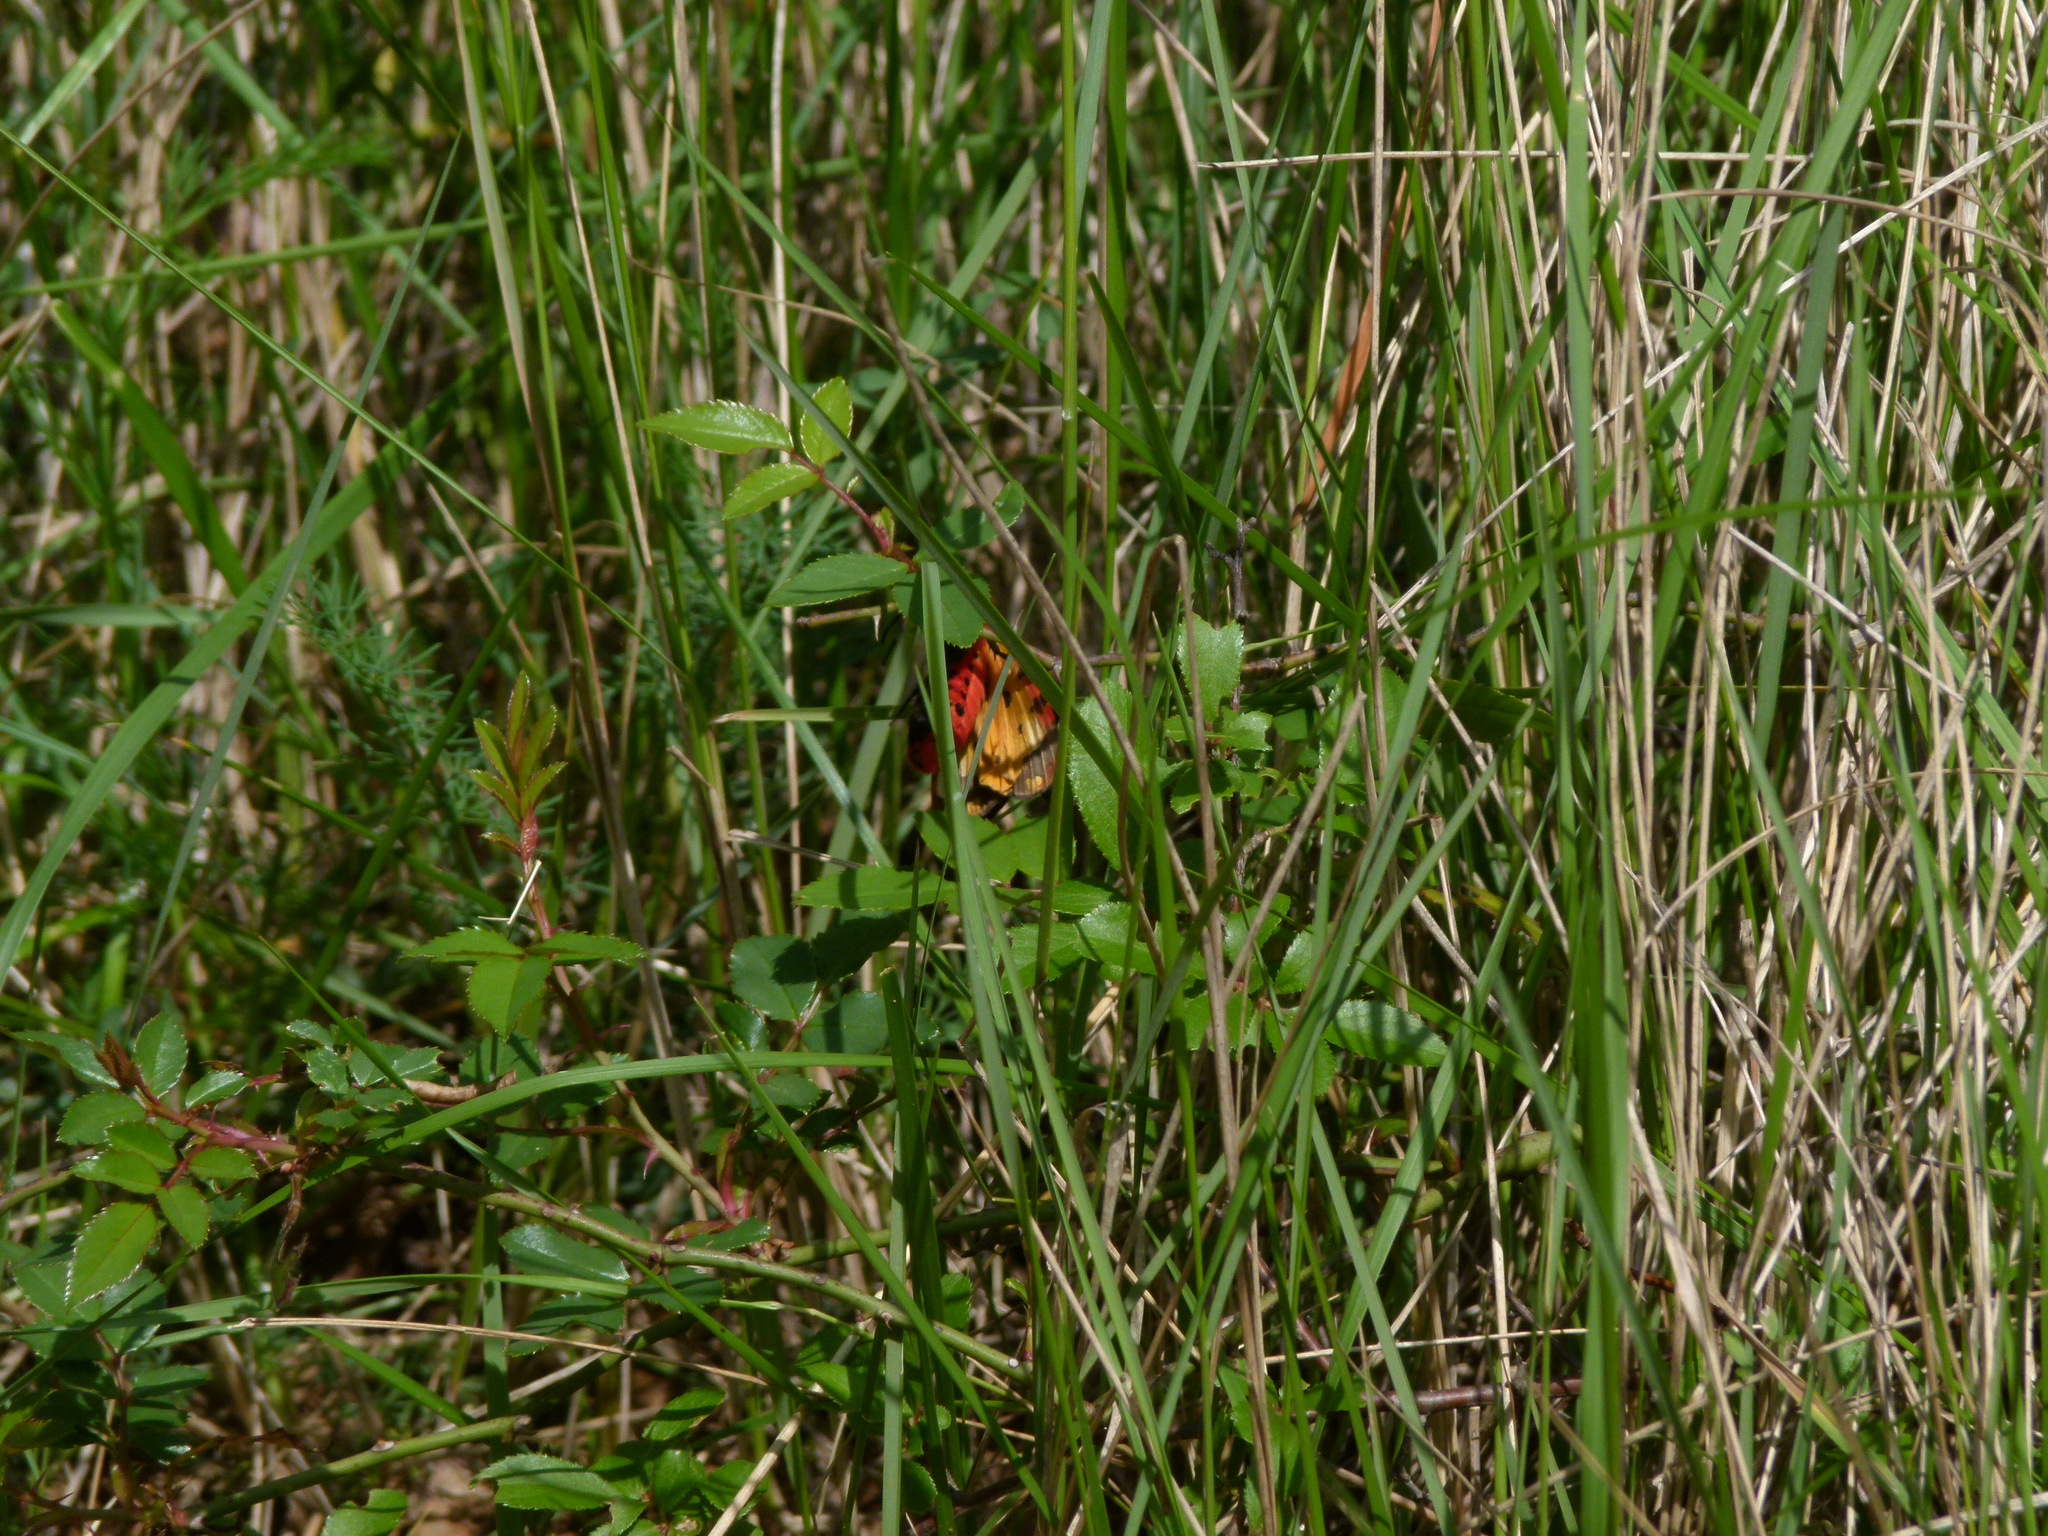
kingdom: Animalia
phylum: Arthropoda
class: Insecta
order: Lepidoptera
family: Erebidae
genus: Epicallia
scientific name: Epicallia villica
